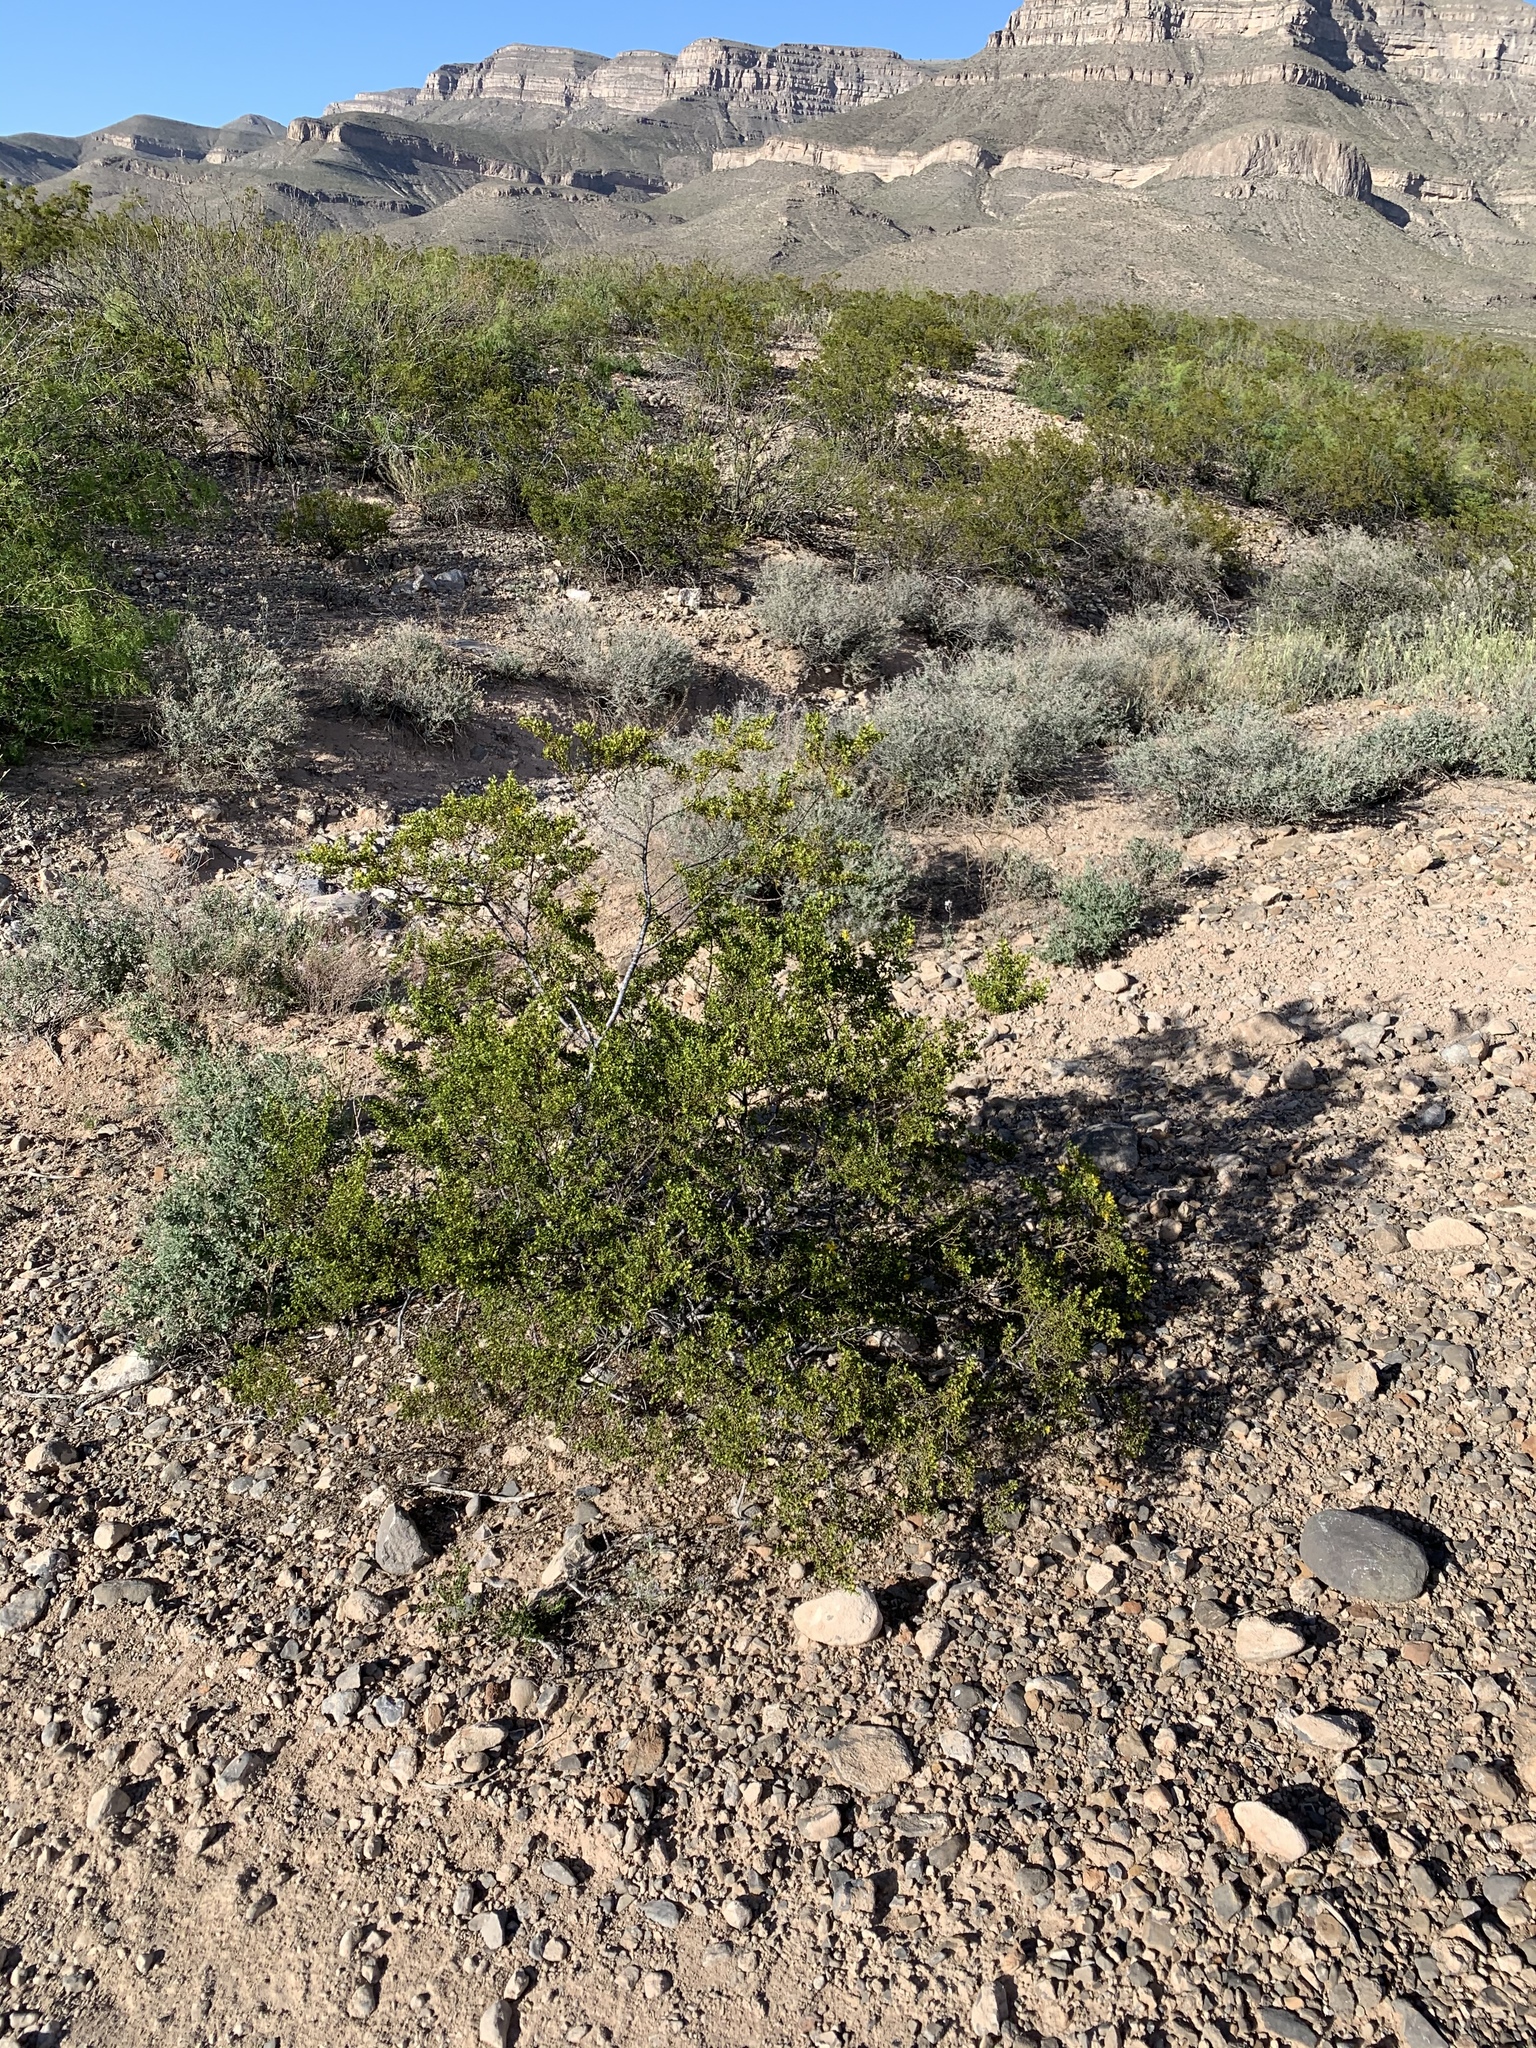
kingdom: Plantae
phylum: Tracheophyta
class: Magnoliopsida
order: Zygophyllales
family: Zygophyllaceae
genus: Larrea
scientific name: Larrea tridentata
